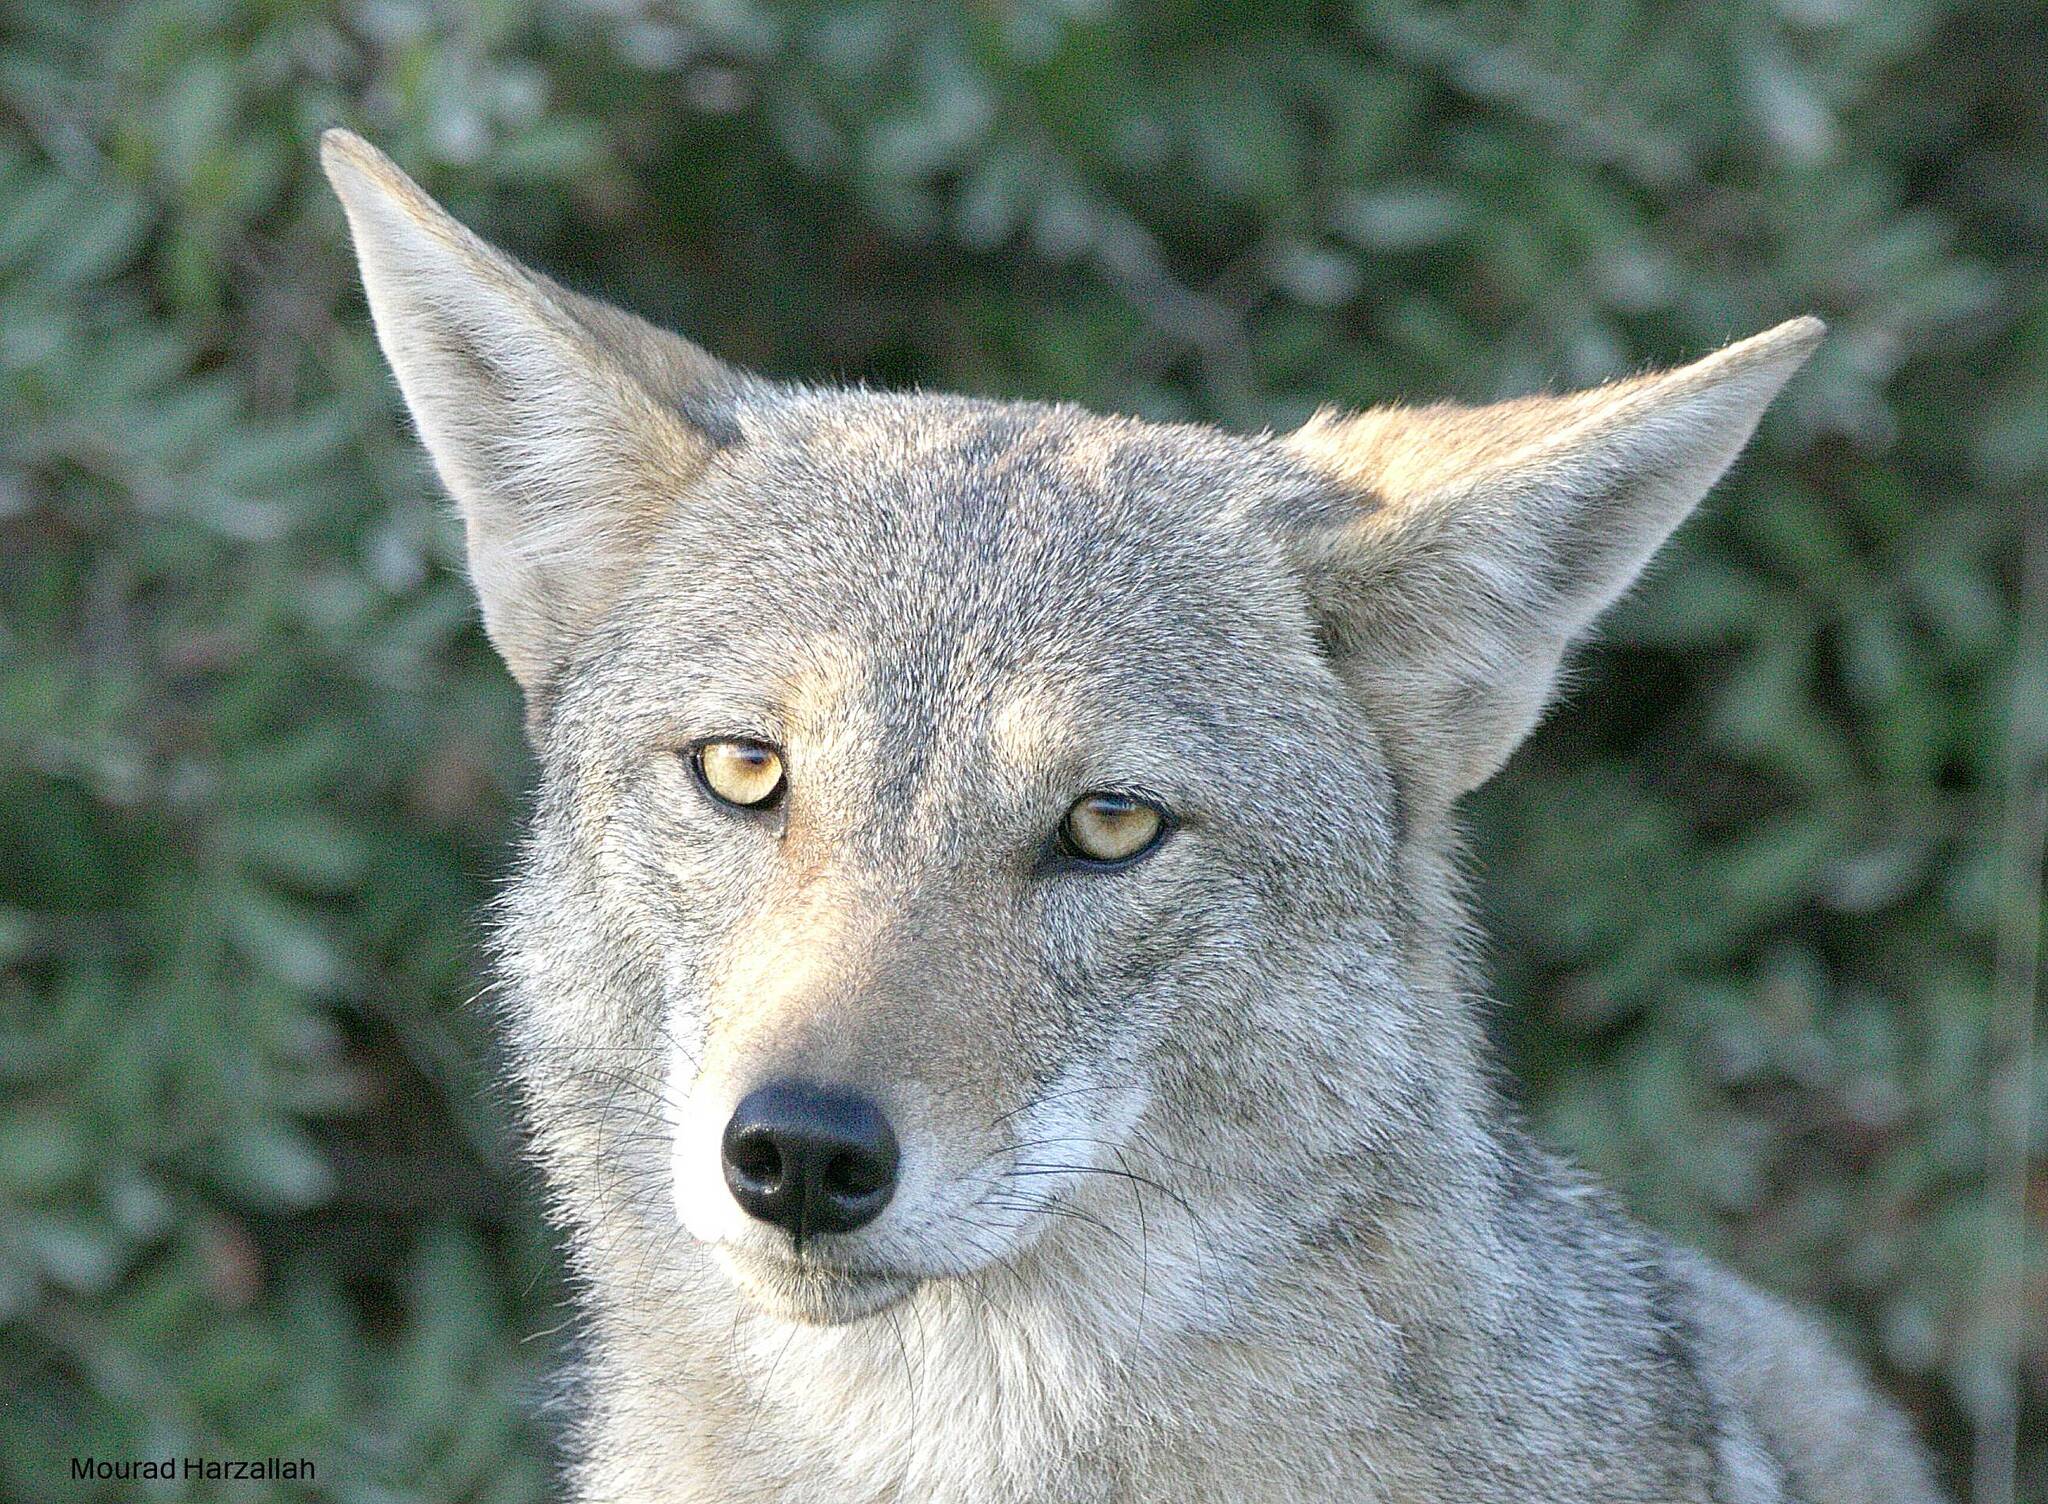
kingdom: Animalia
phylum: Chordata
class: Mammalia
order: Carnivora
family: Canidae
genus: Canis
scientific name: Canis lupaster
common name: African golden wolf
